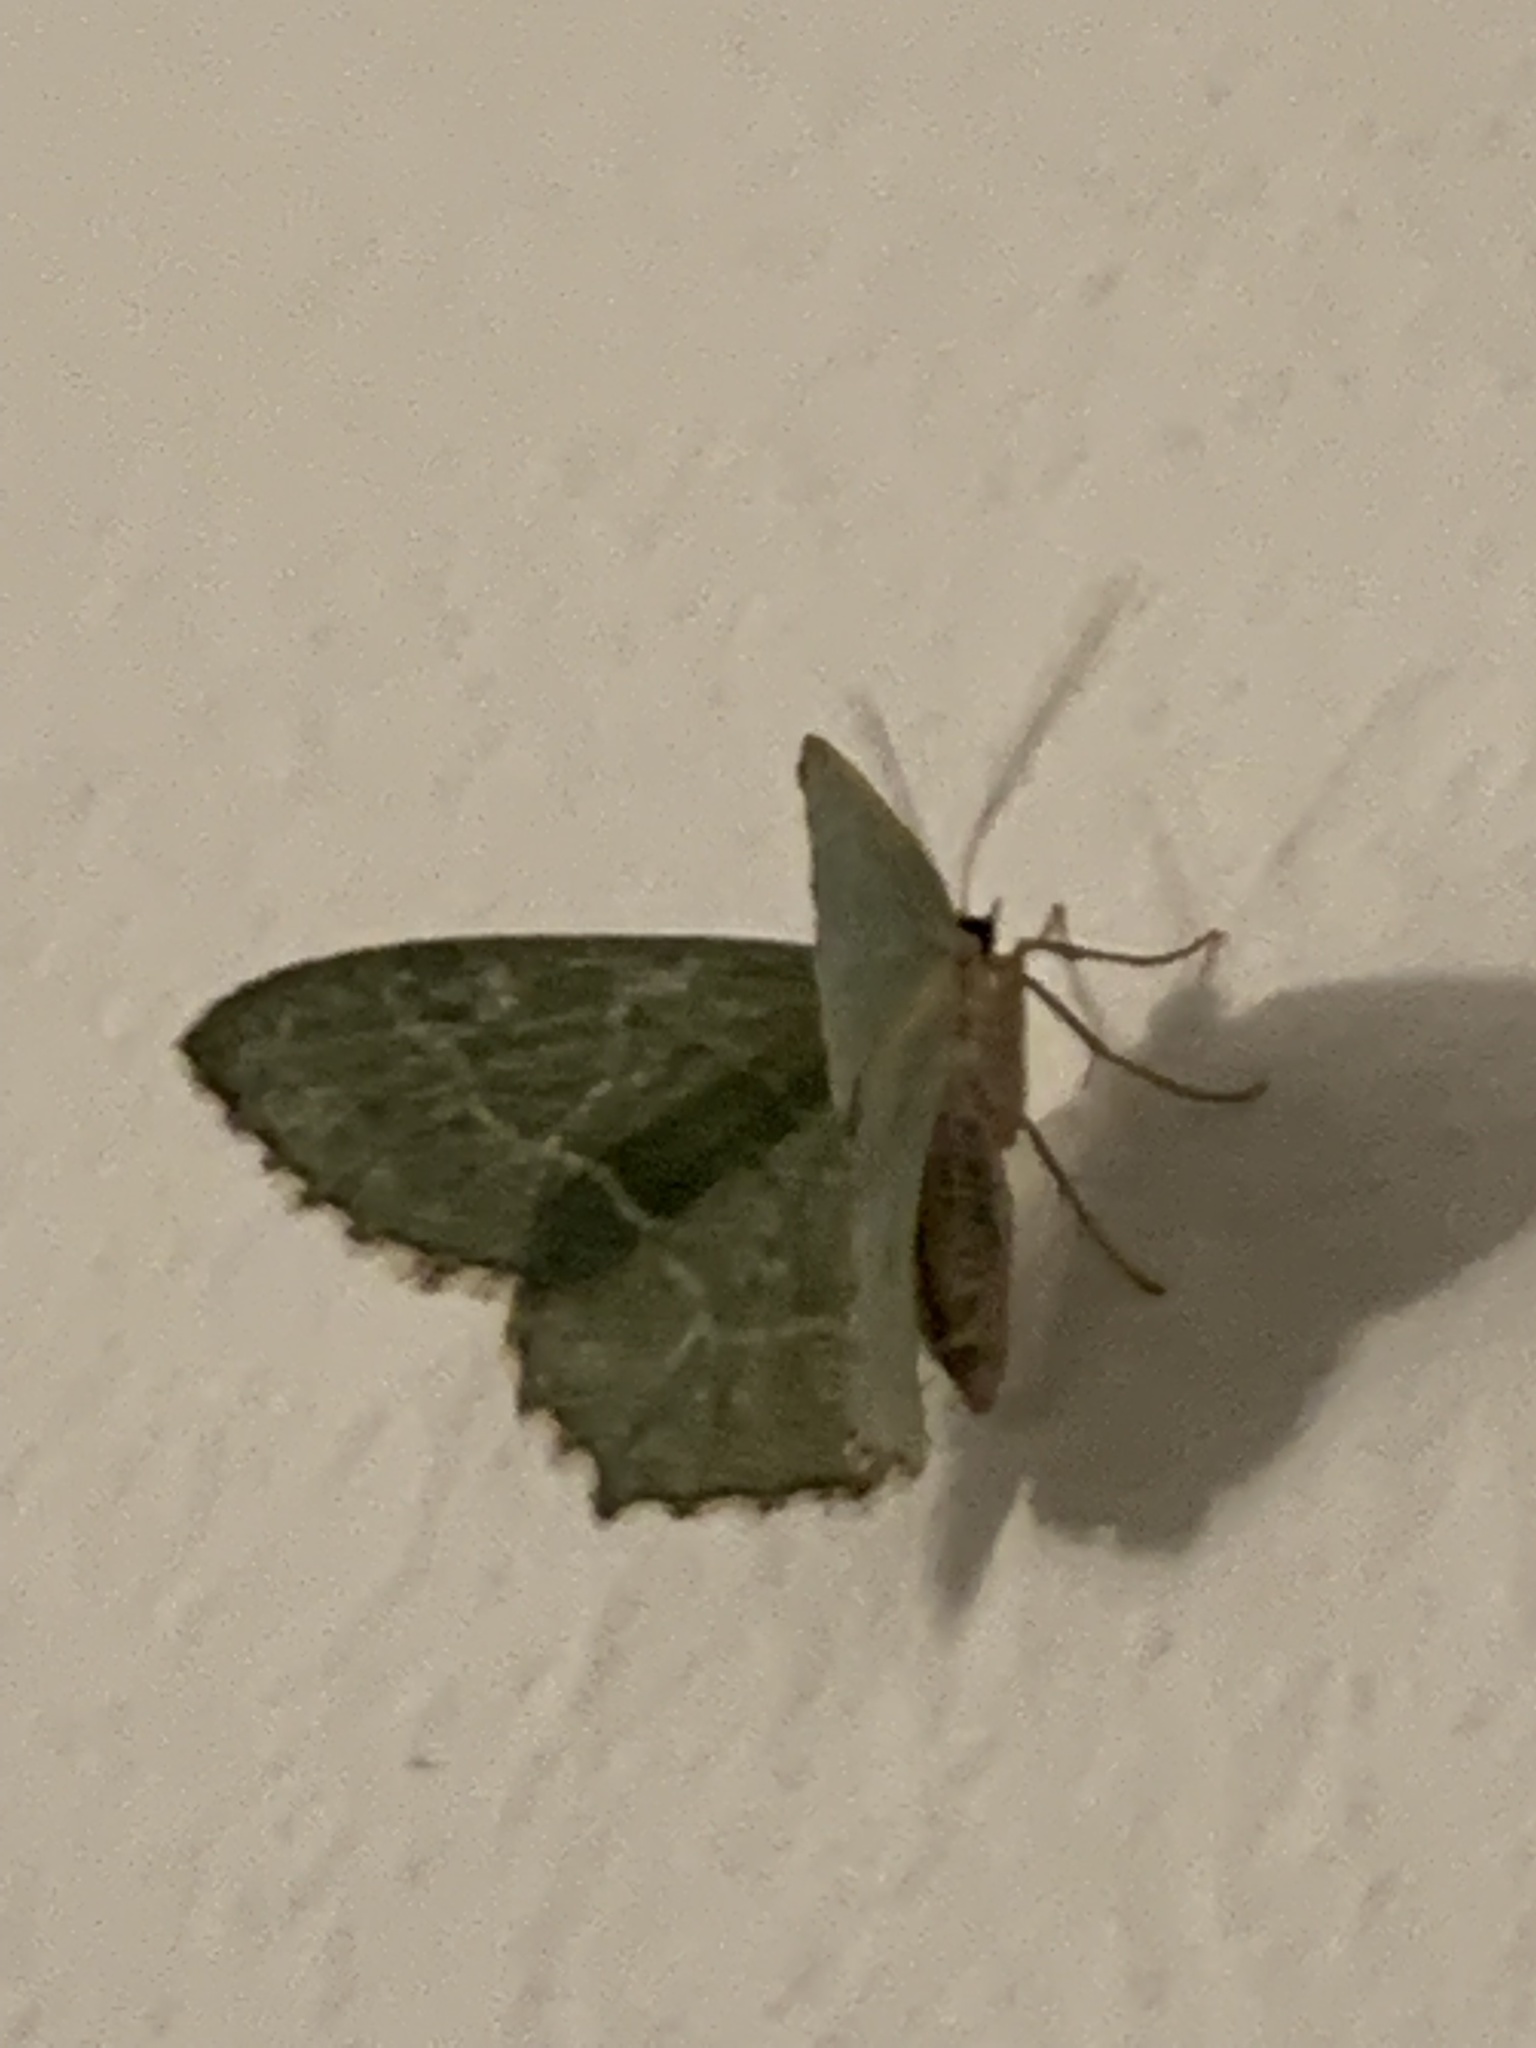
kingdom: Animalia
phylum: Arthropoda
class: Insecta
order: Lepidoptera
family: Geometridae
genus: Hemithea
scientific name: Hemithea aestivaria
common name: Common emerald
